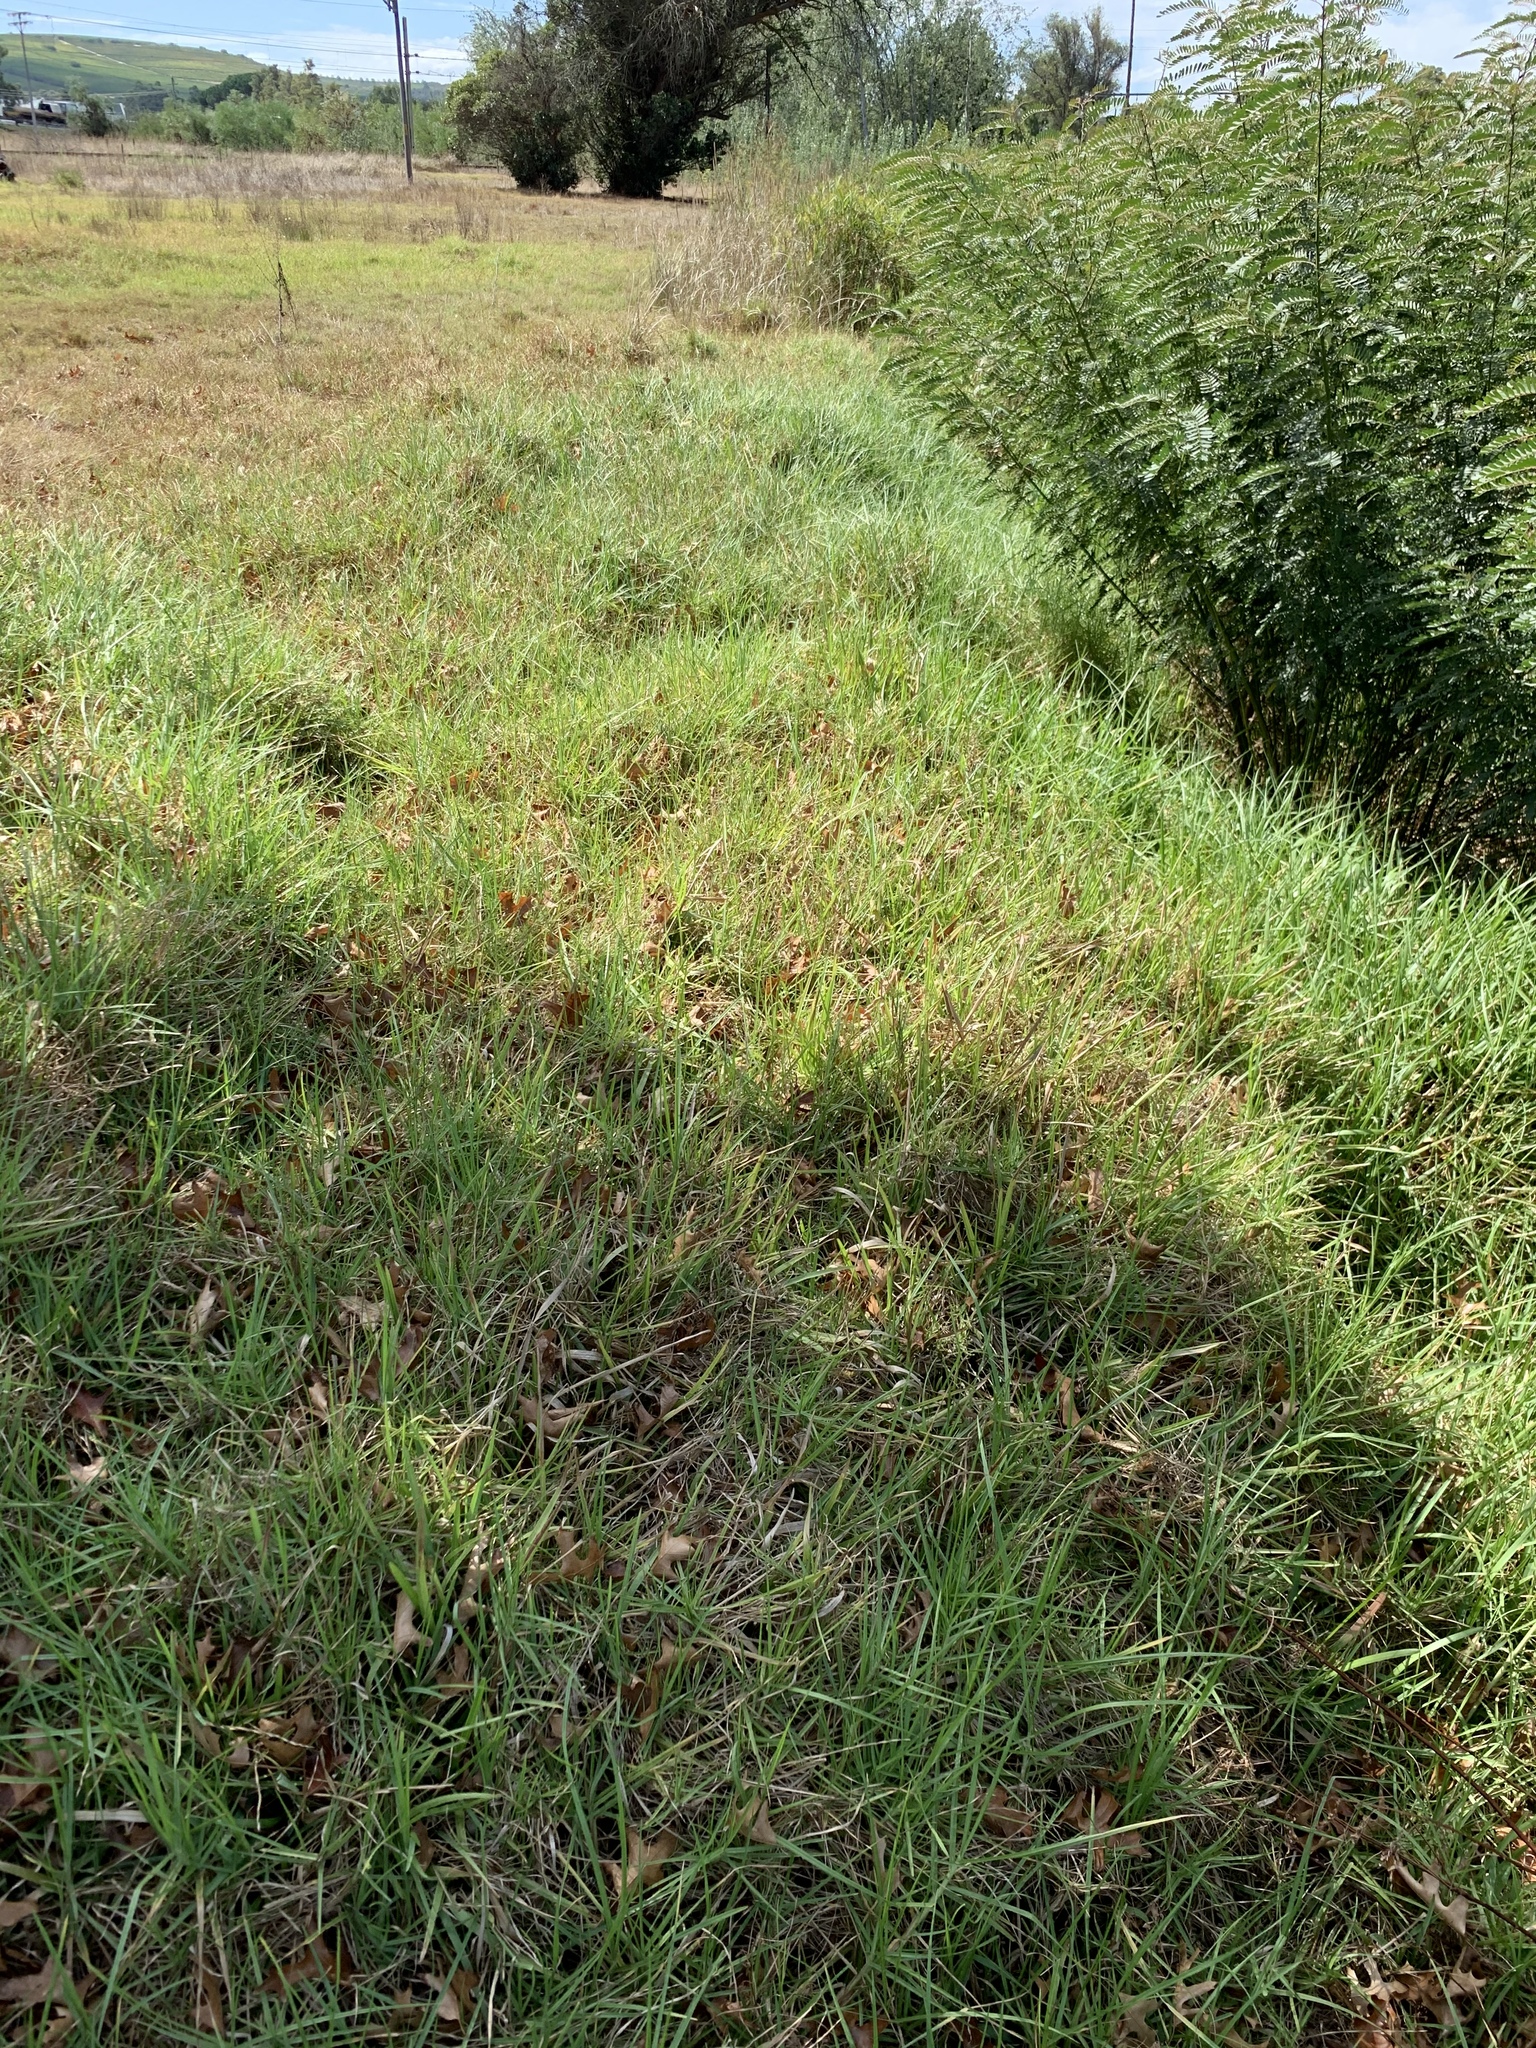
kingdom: Plantae
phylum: Tracheophyta
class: Liliopsida
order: Poales
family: Poaceae
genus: Cenchrus
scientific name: Cenchrus clandestinus
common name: Kikuyugrass
